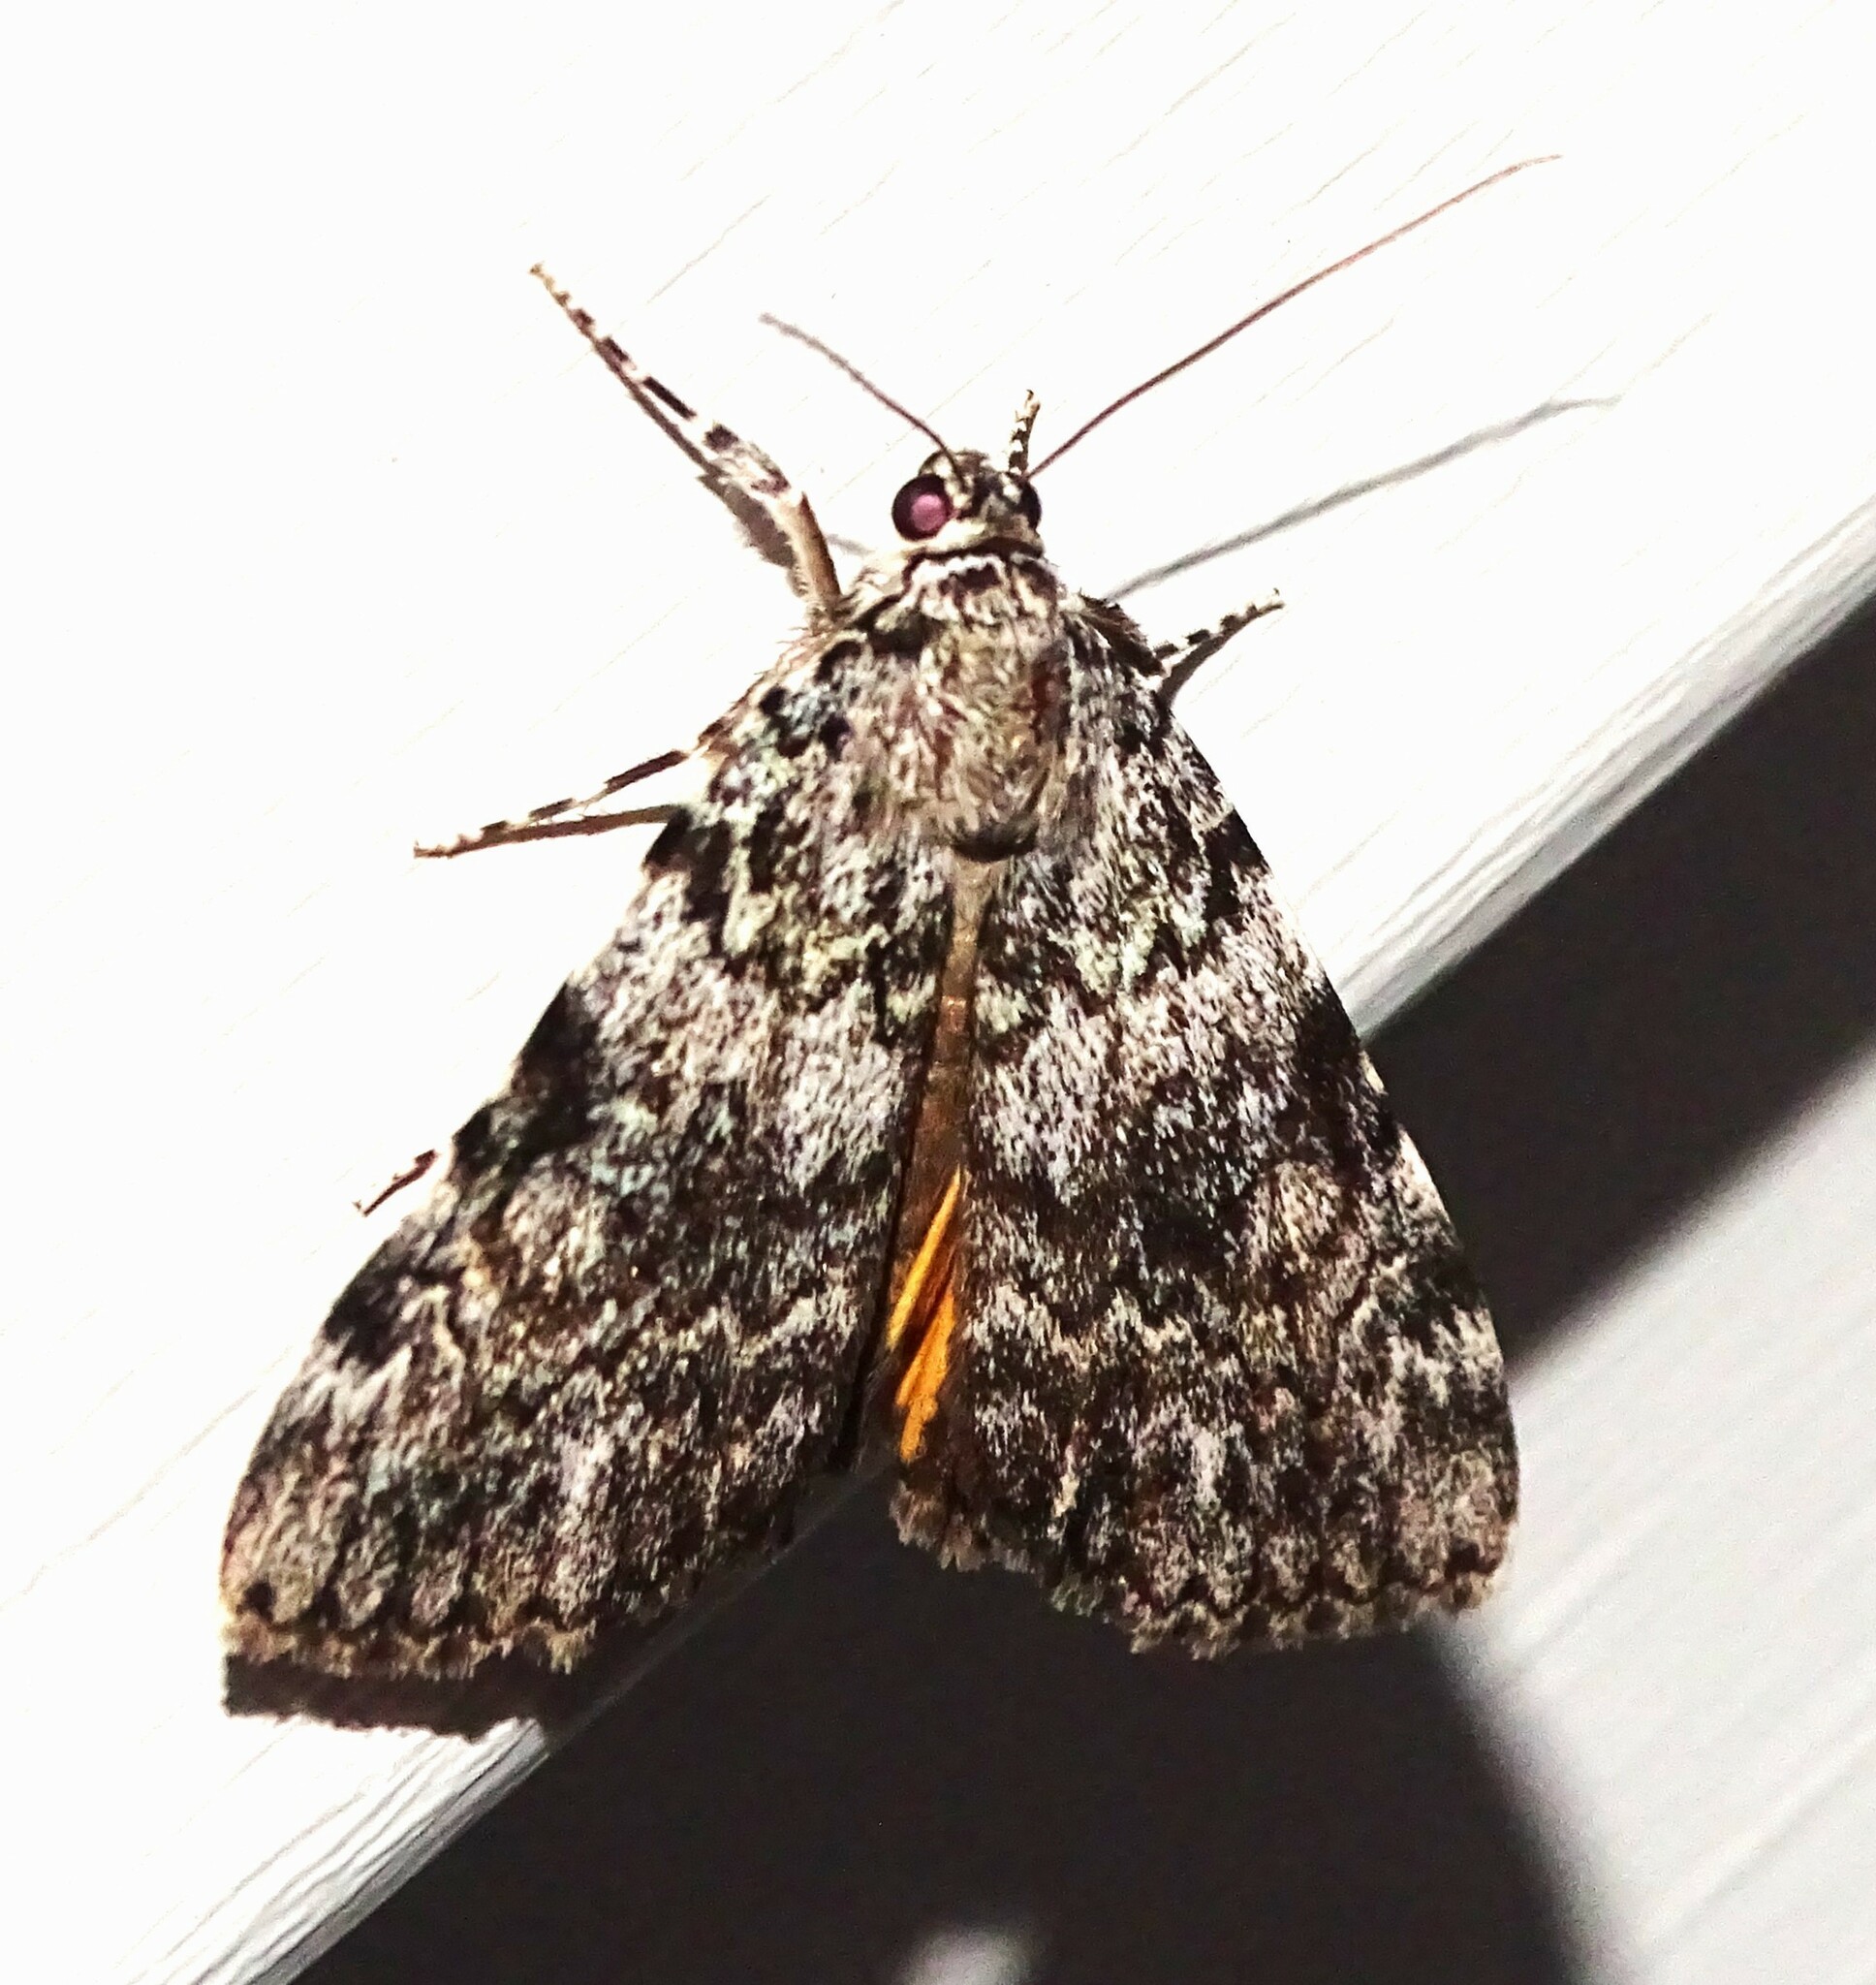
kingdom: Animalia
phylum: Arthropoda
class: Insecta
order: Lepidoptera
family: Erebidae
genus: Catocala
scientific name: Catocala lineella
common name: Little lined underwing
